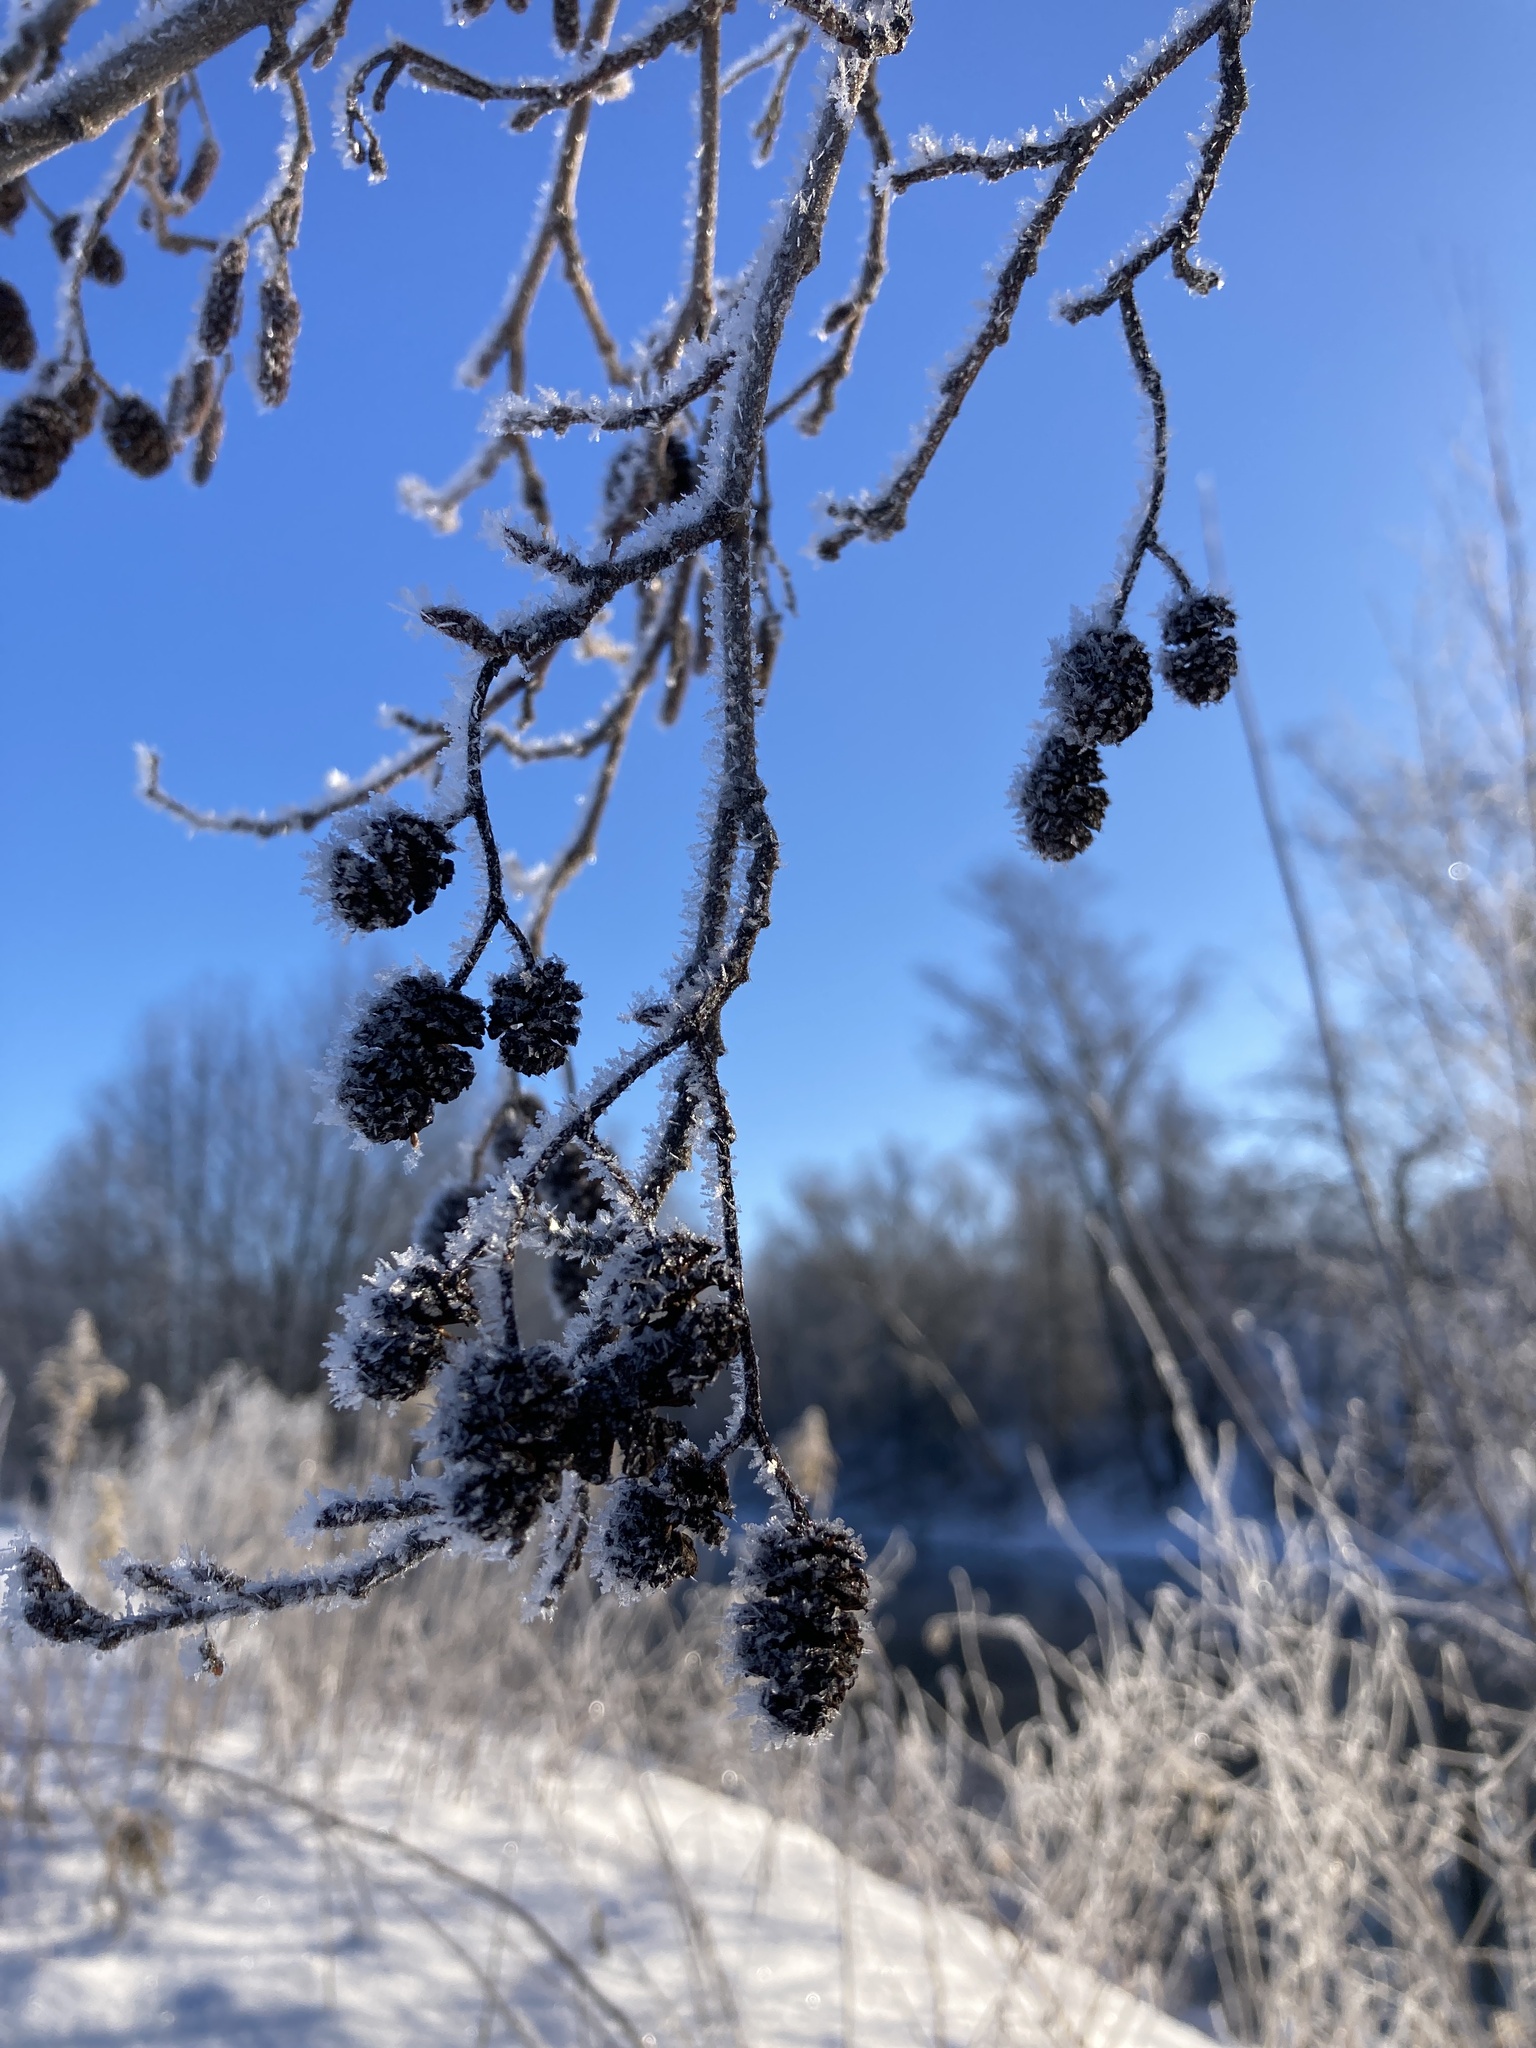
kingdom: Plantae
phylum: Tracheophyta
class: Magnoliopsida
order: Fagales
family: Betulaceae
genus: Alnus
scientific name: Alnus glutinosa
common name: Black alder
